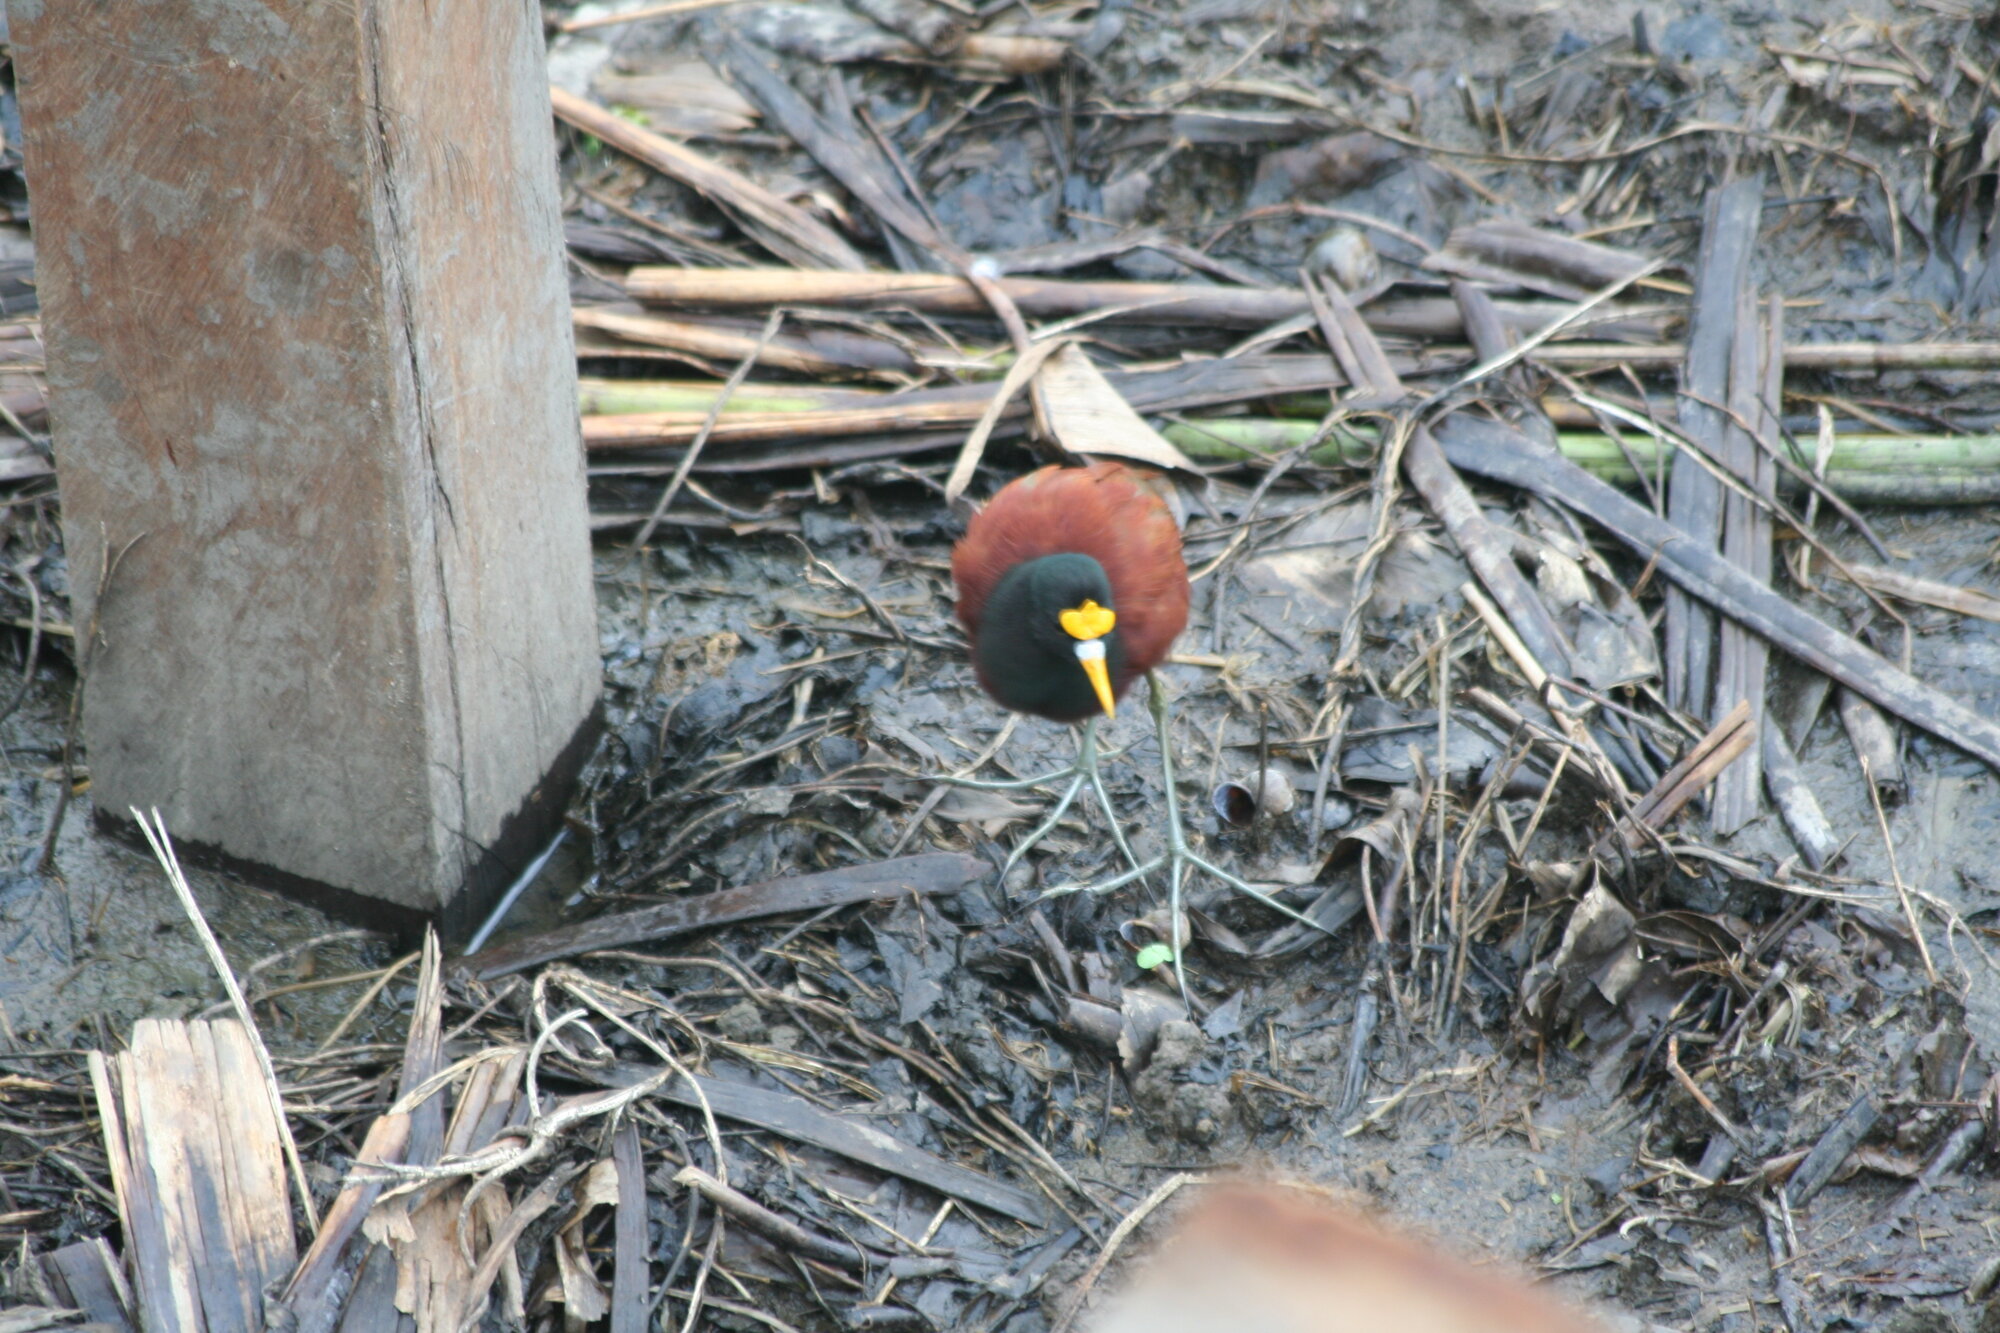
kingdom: Animalia
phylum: Chordata
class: Aves
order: Charadriiformes
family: Jacanidae
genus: Jacana
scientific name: Jacana spinosa
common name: Northern jacana
